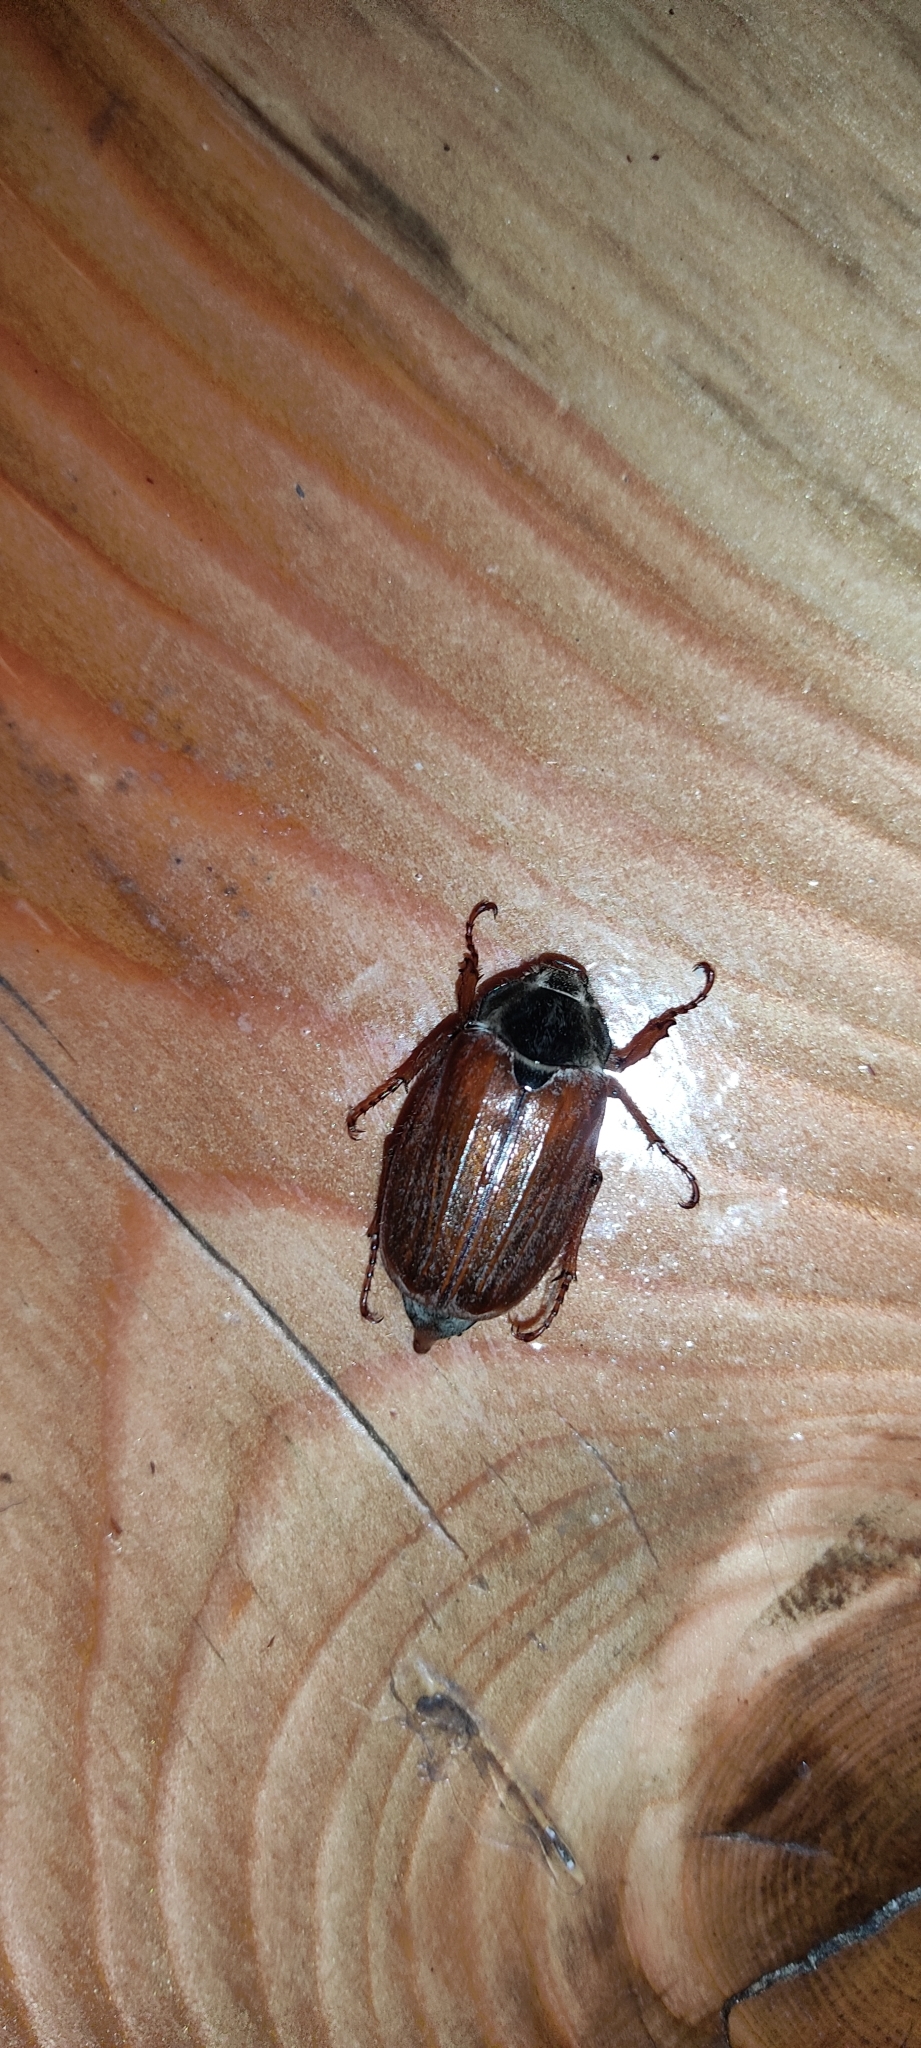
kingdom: Animalia
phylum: Arthropoda
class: Insecta
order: Coleoptera
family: Scarabaeidae
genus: Melolontha
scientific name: Melolontha melolontha
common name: Cockchafer maybeetle
